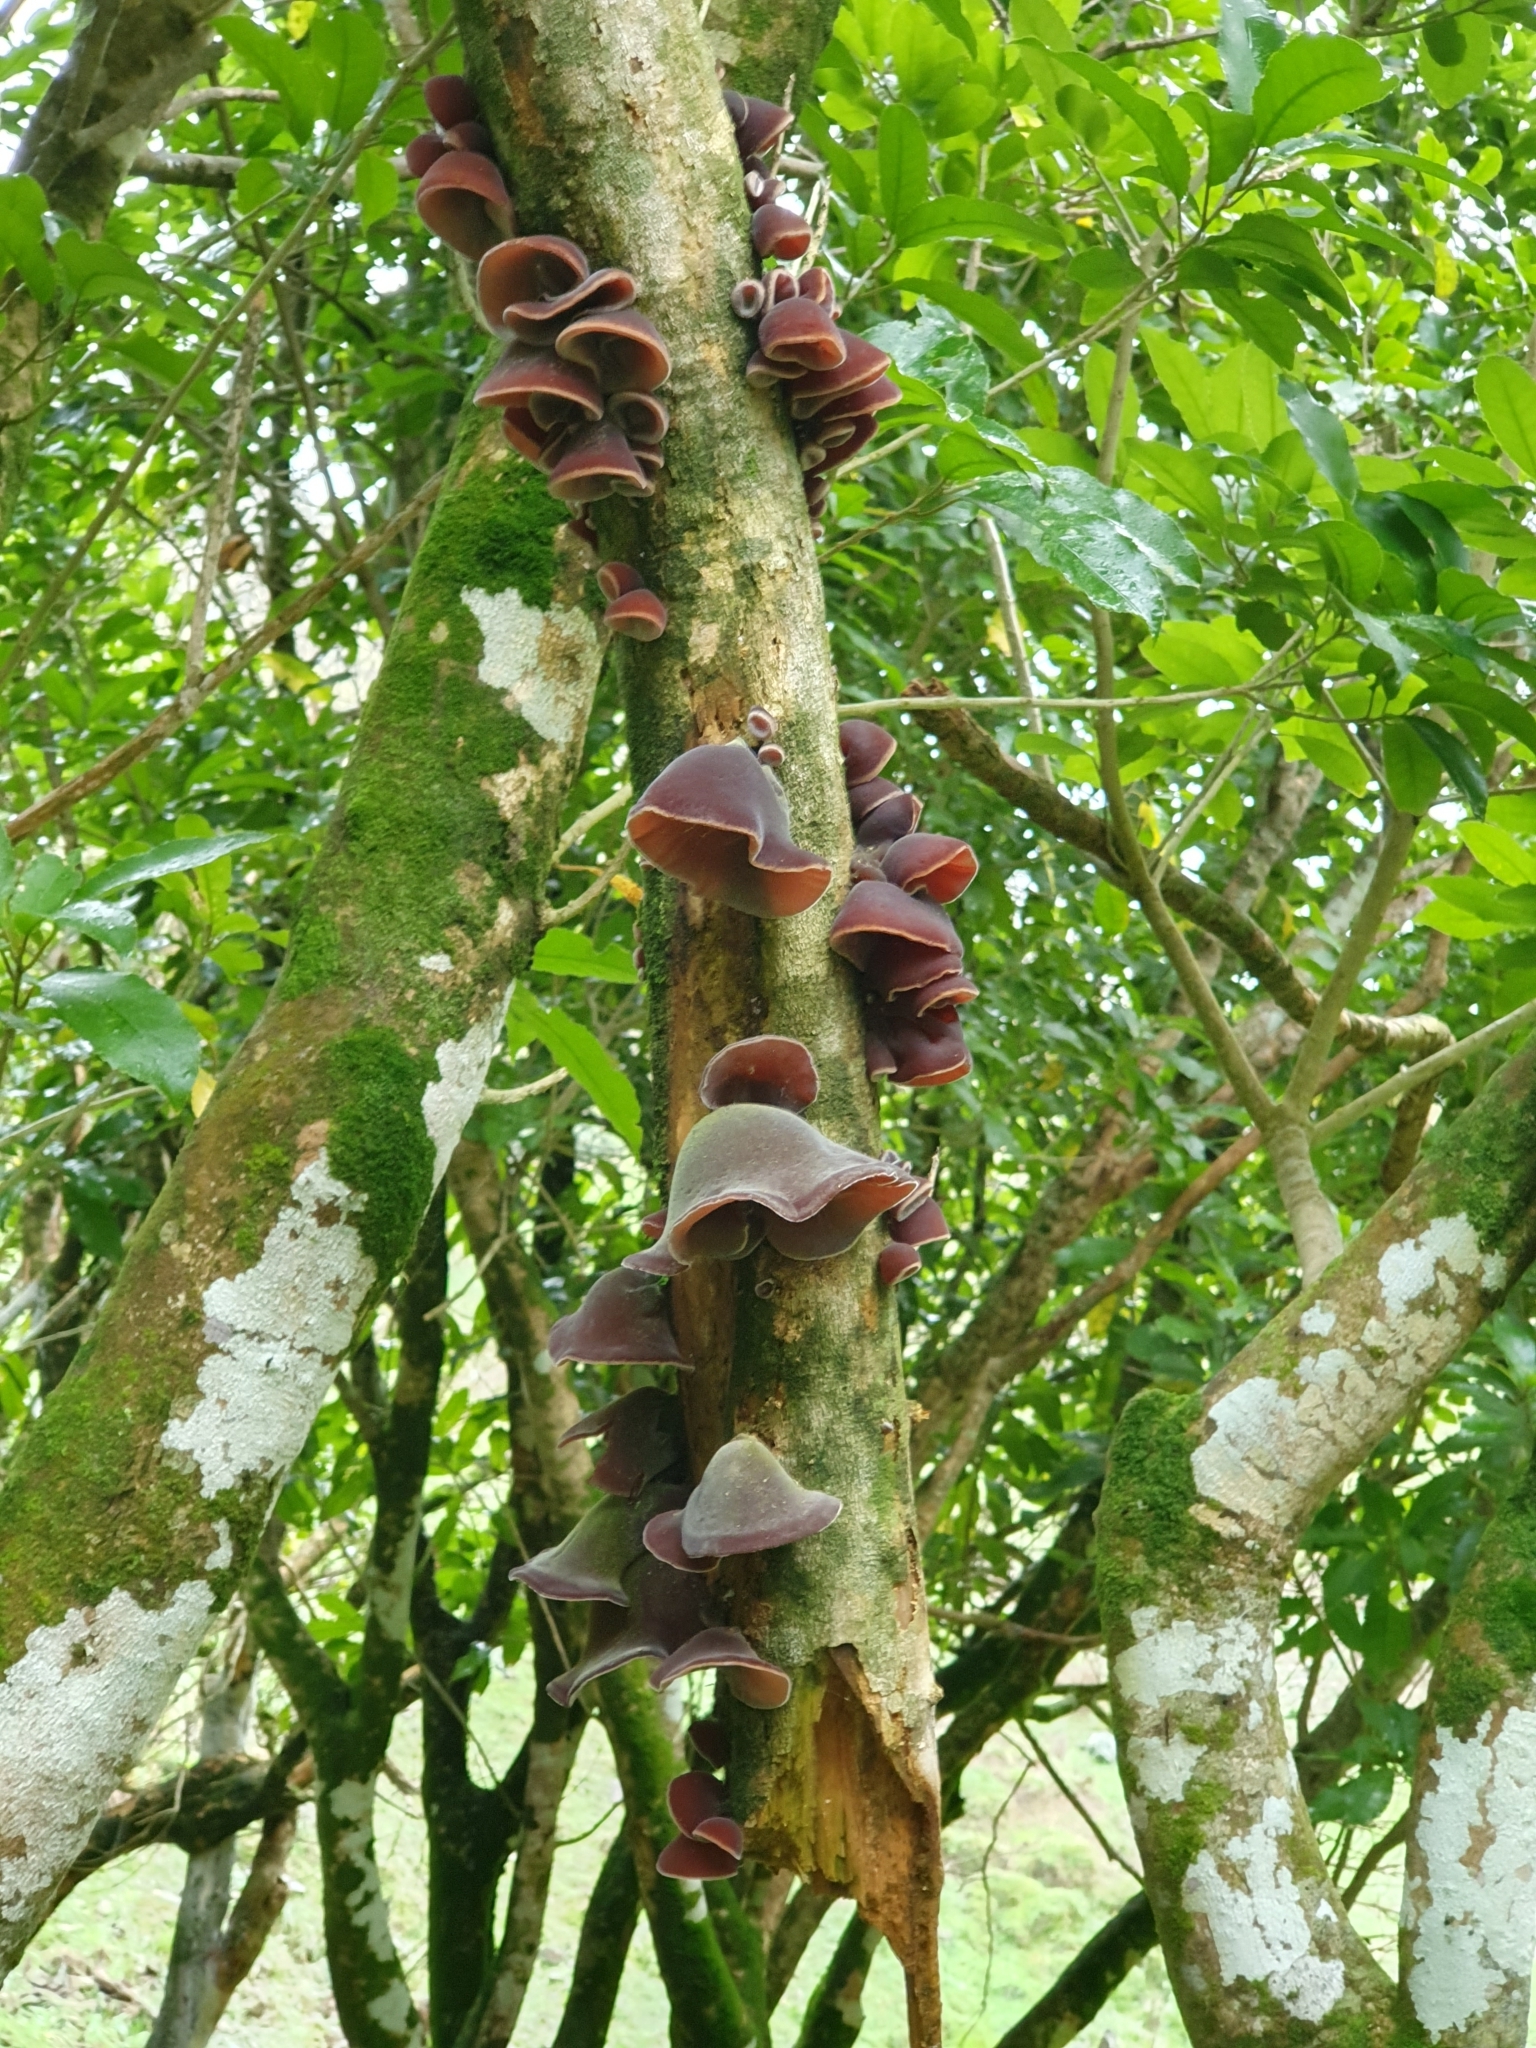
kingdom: Fungi
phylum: Basidiomycota
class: Agaricomycetes
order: Auriculariales
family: Auriculariaceae
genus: Auricularia
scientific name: Auricularia cornea
